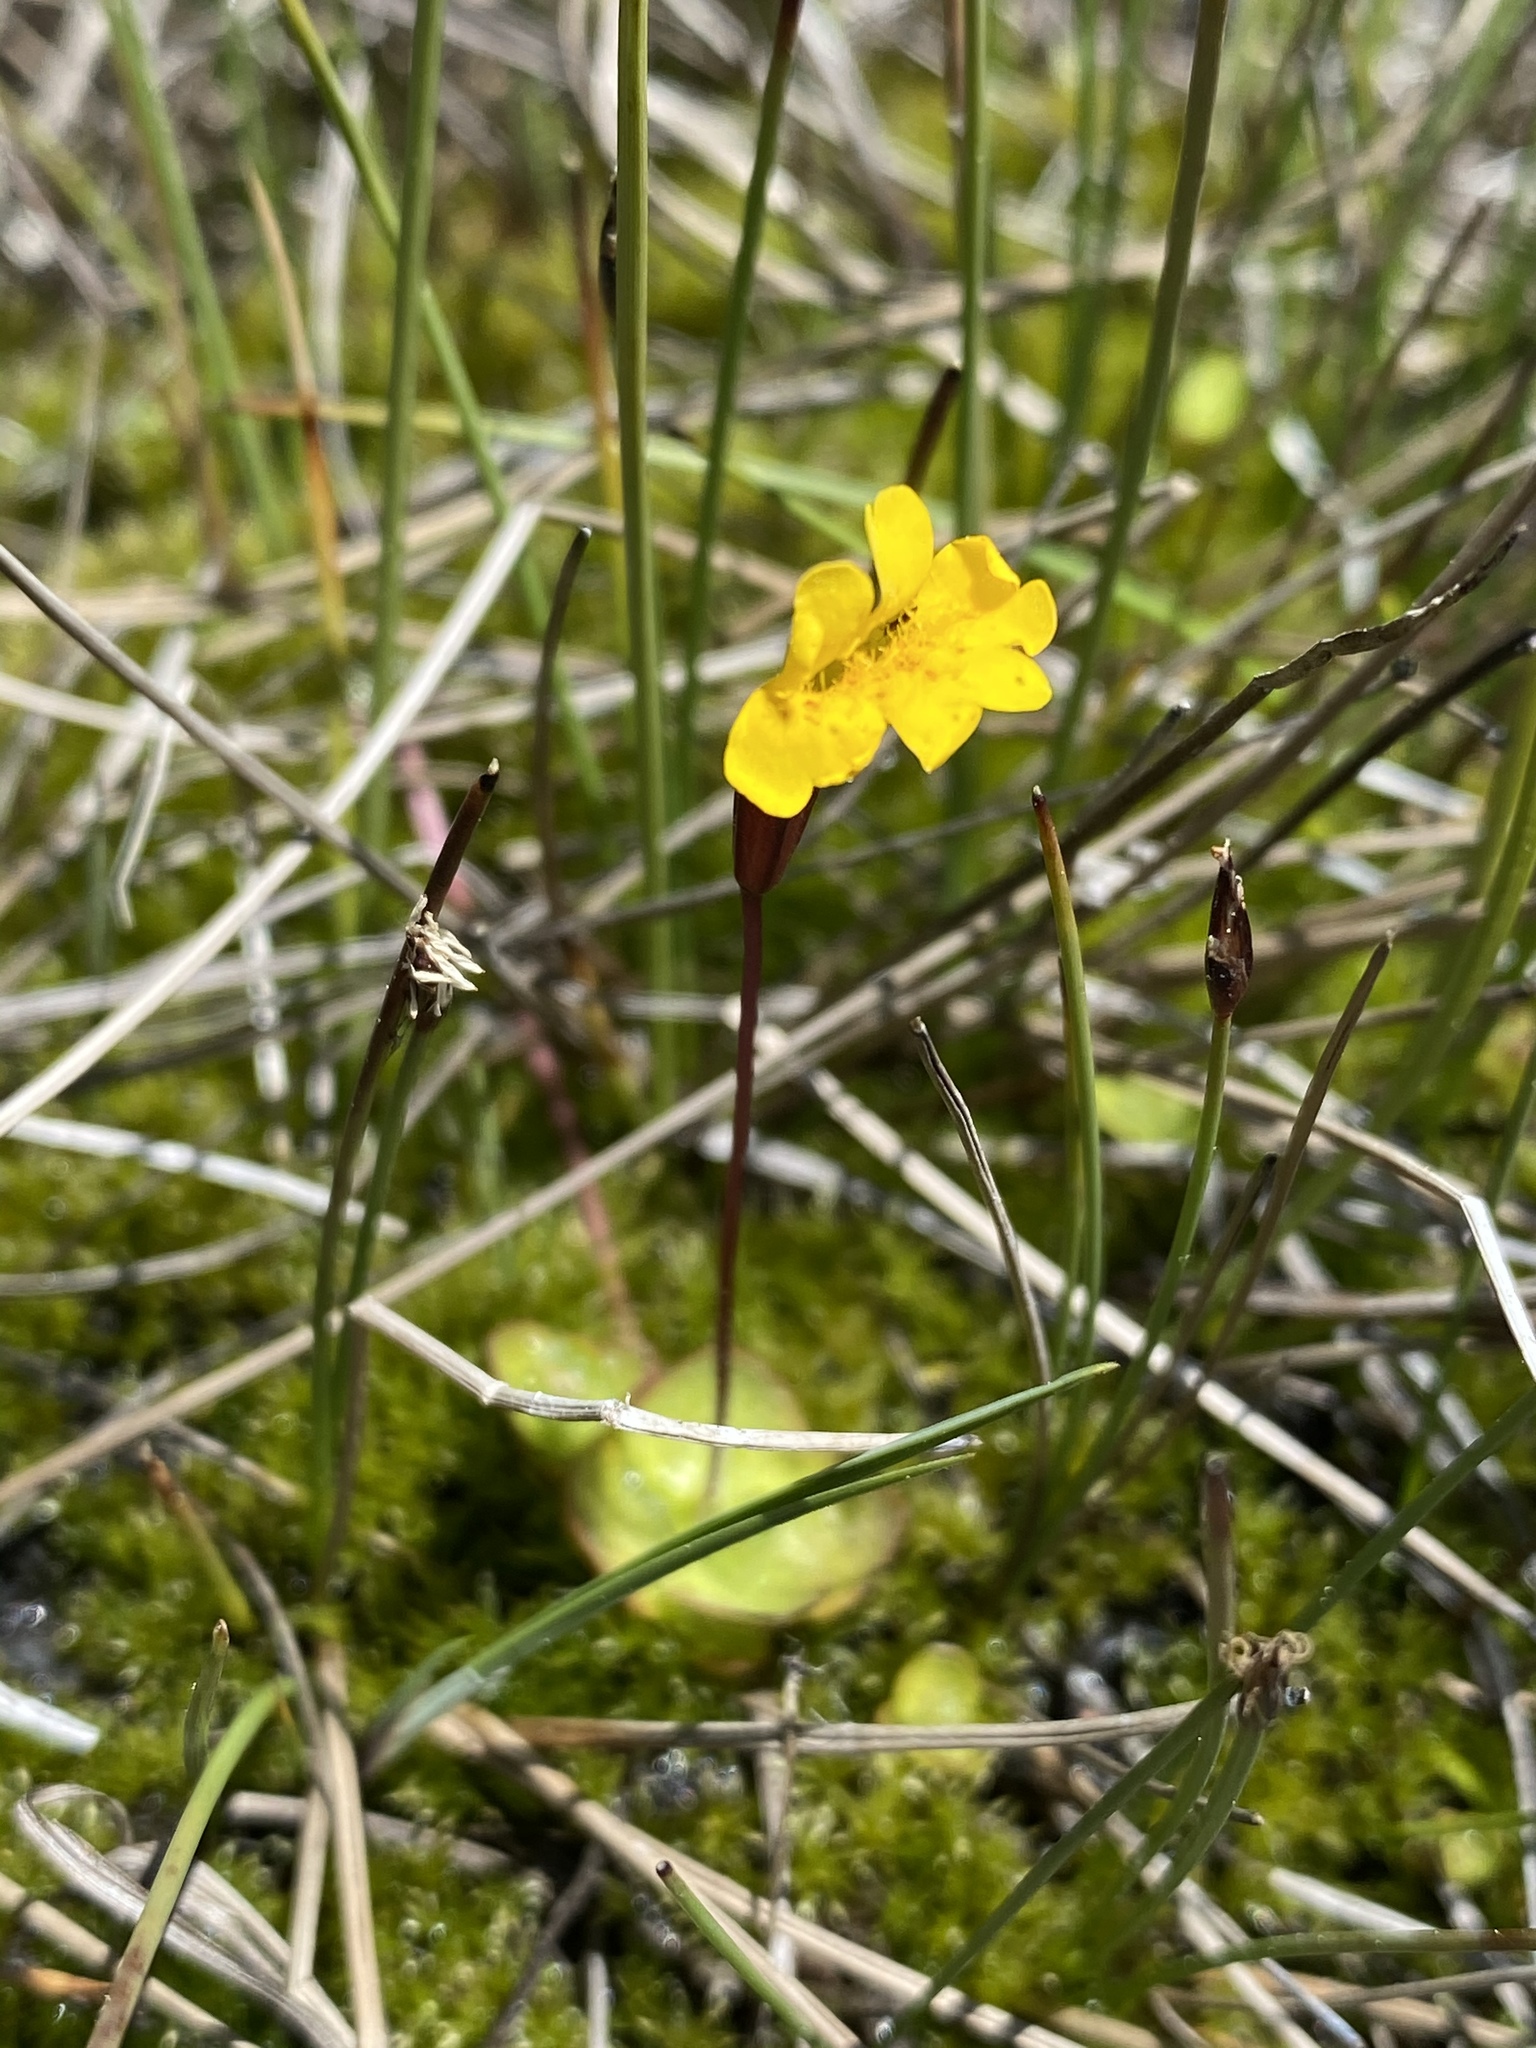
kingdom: Plantae
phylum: Tracheophyta
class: Magnoliopsida
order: Lamiales
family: Phrymaceae
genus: Erythranthe
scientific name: Erythranthe primuloides
